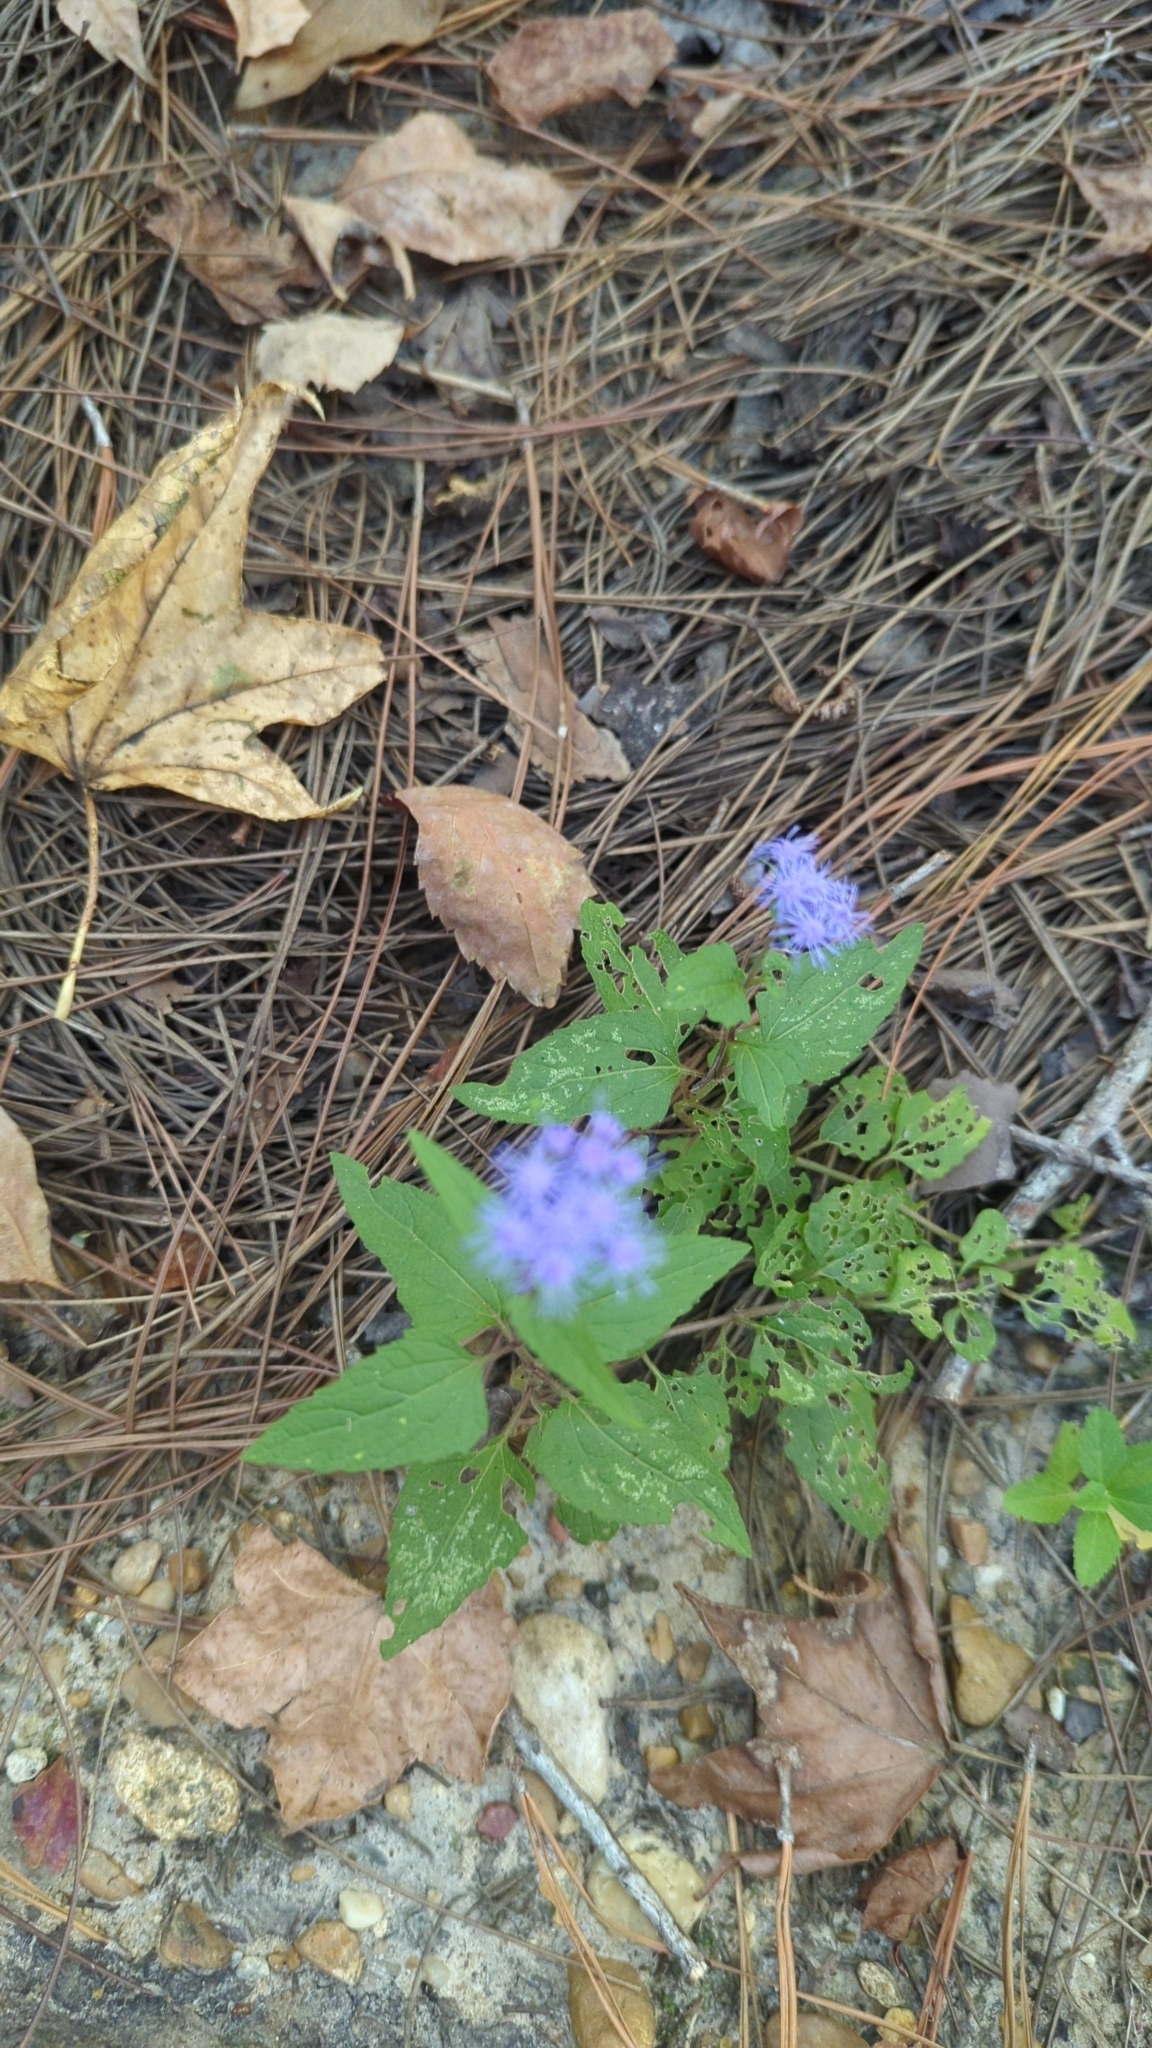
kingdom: Plantae
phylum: Tracheophyta
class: Magnoliopsida
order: Asterales
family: Asteraceae
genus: Conoclinium
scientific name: Conoclinium coelestinum
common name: Blue mistflower
